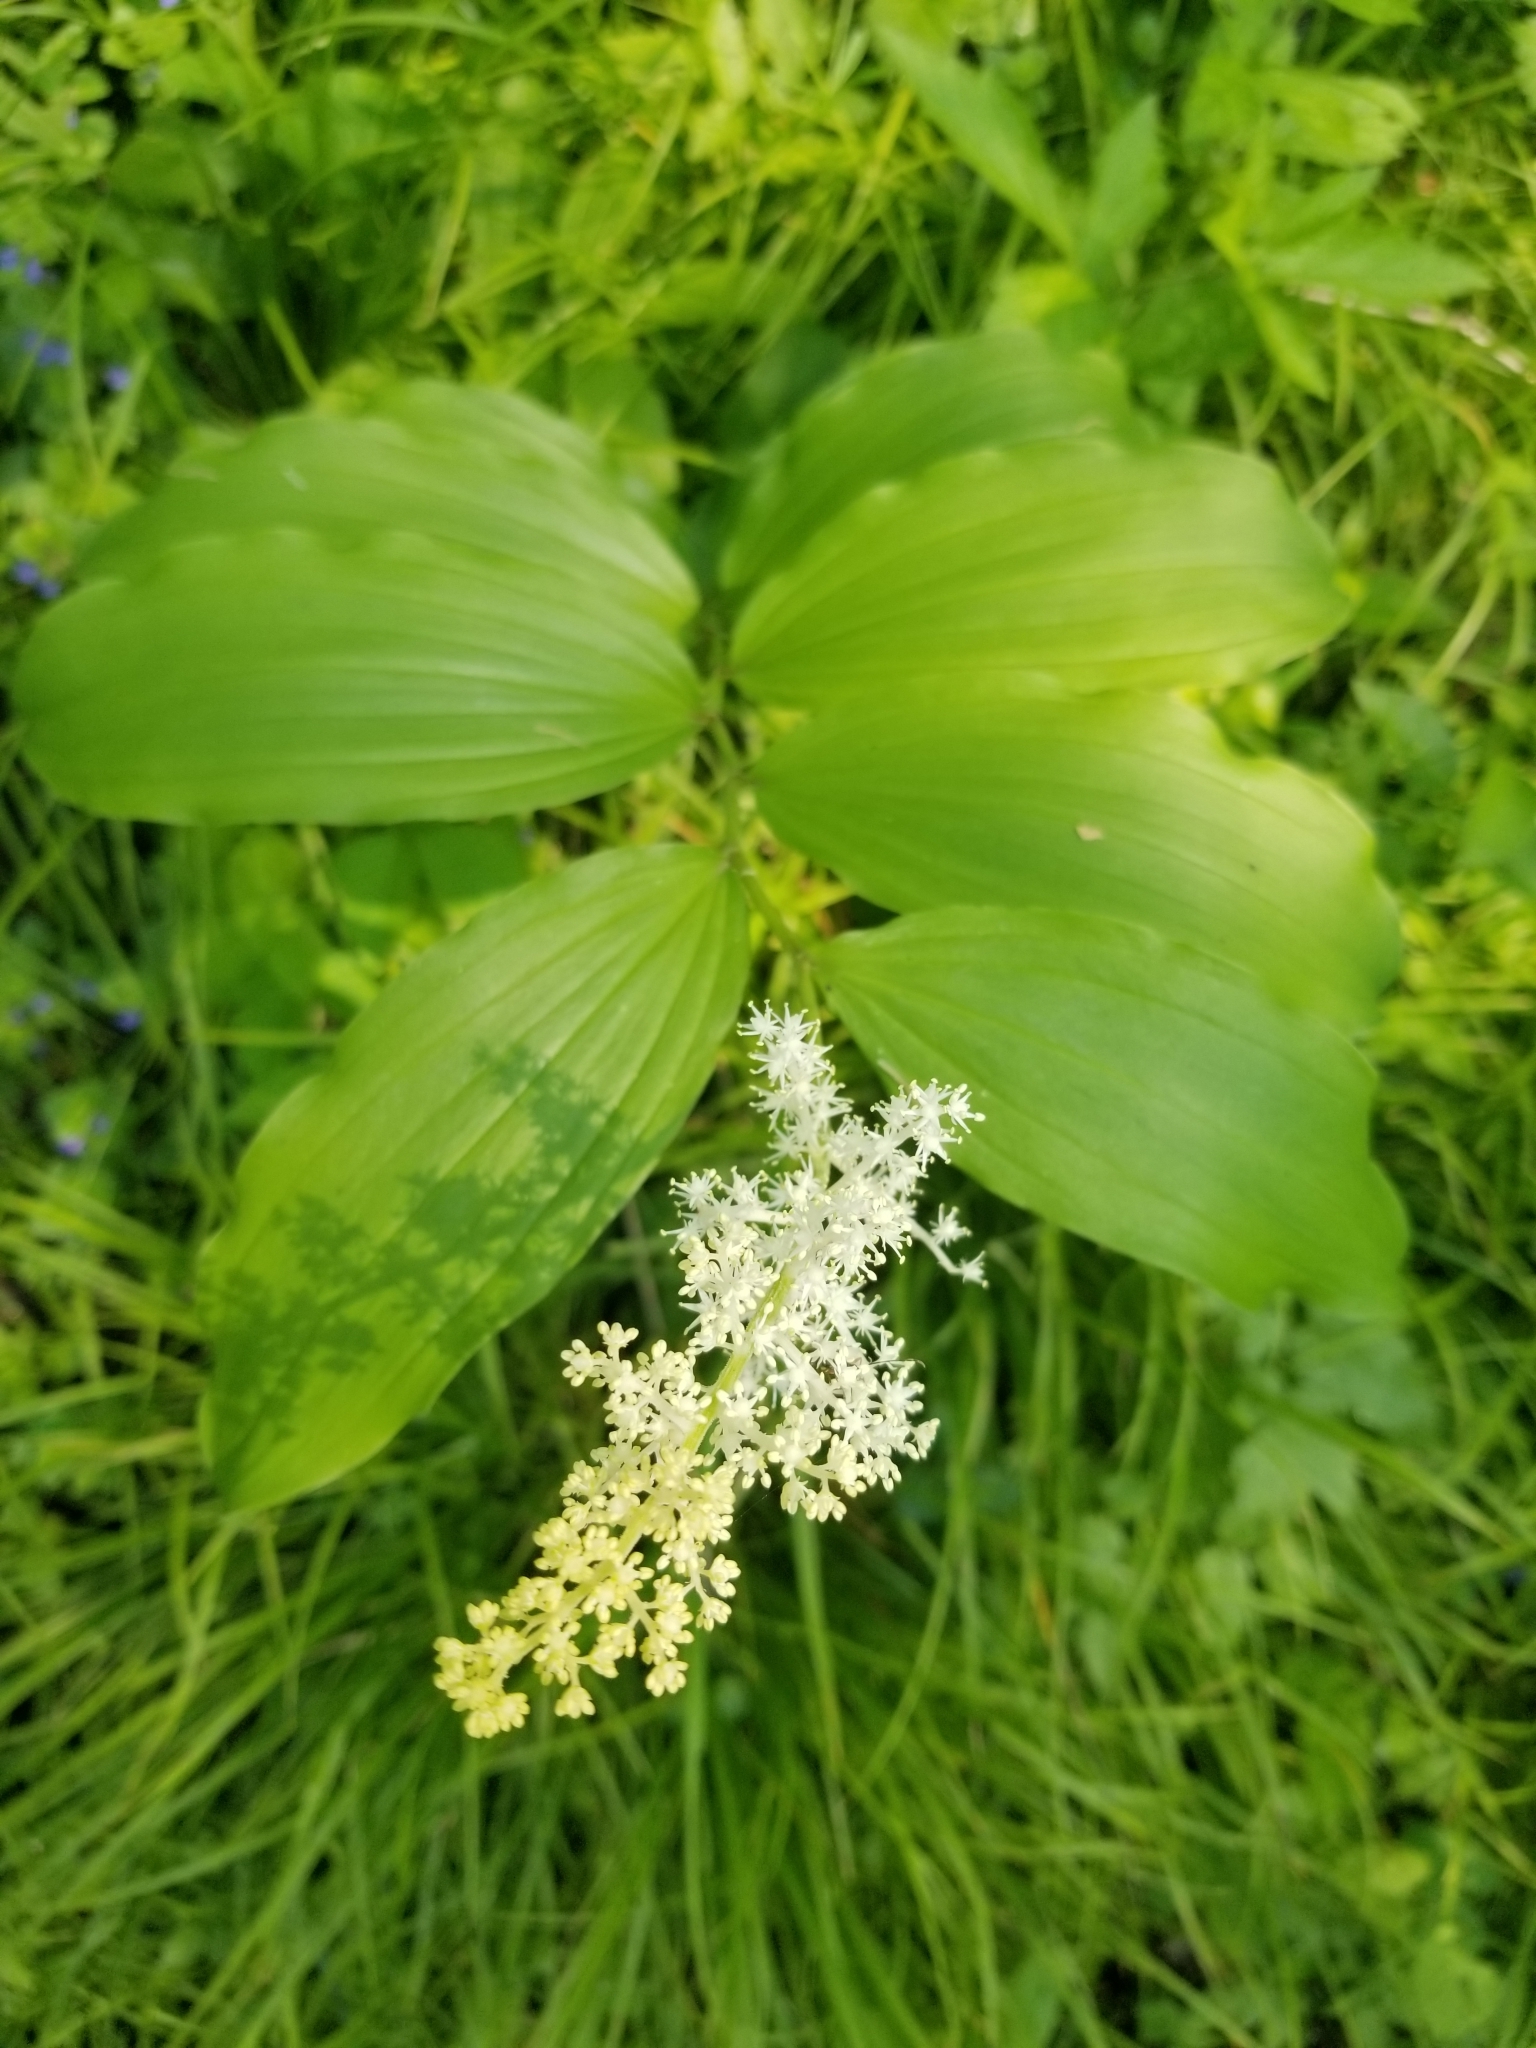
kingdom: Plantae
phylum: Tracheophyta
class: Liliopsida
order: Asparagales
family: Asparagaceae
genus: Maianthemum
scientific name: Maianthemum racemosum
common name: False spikenard
